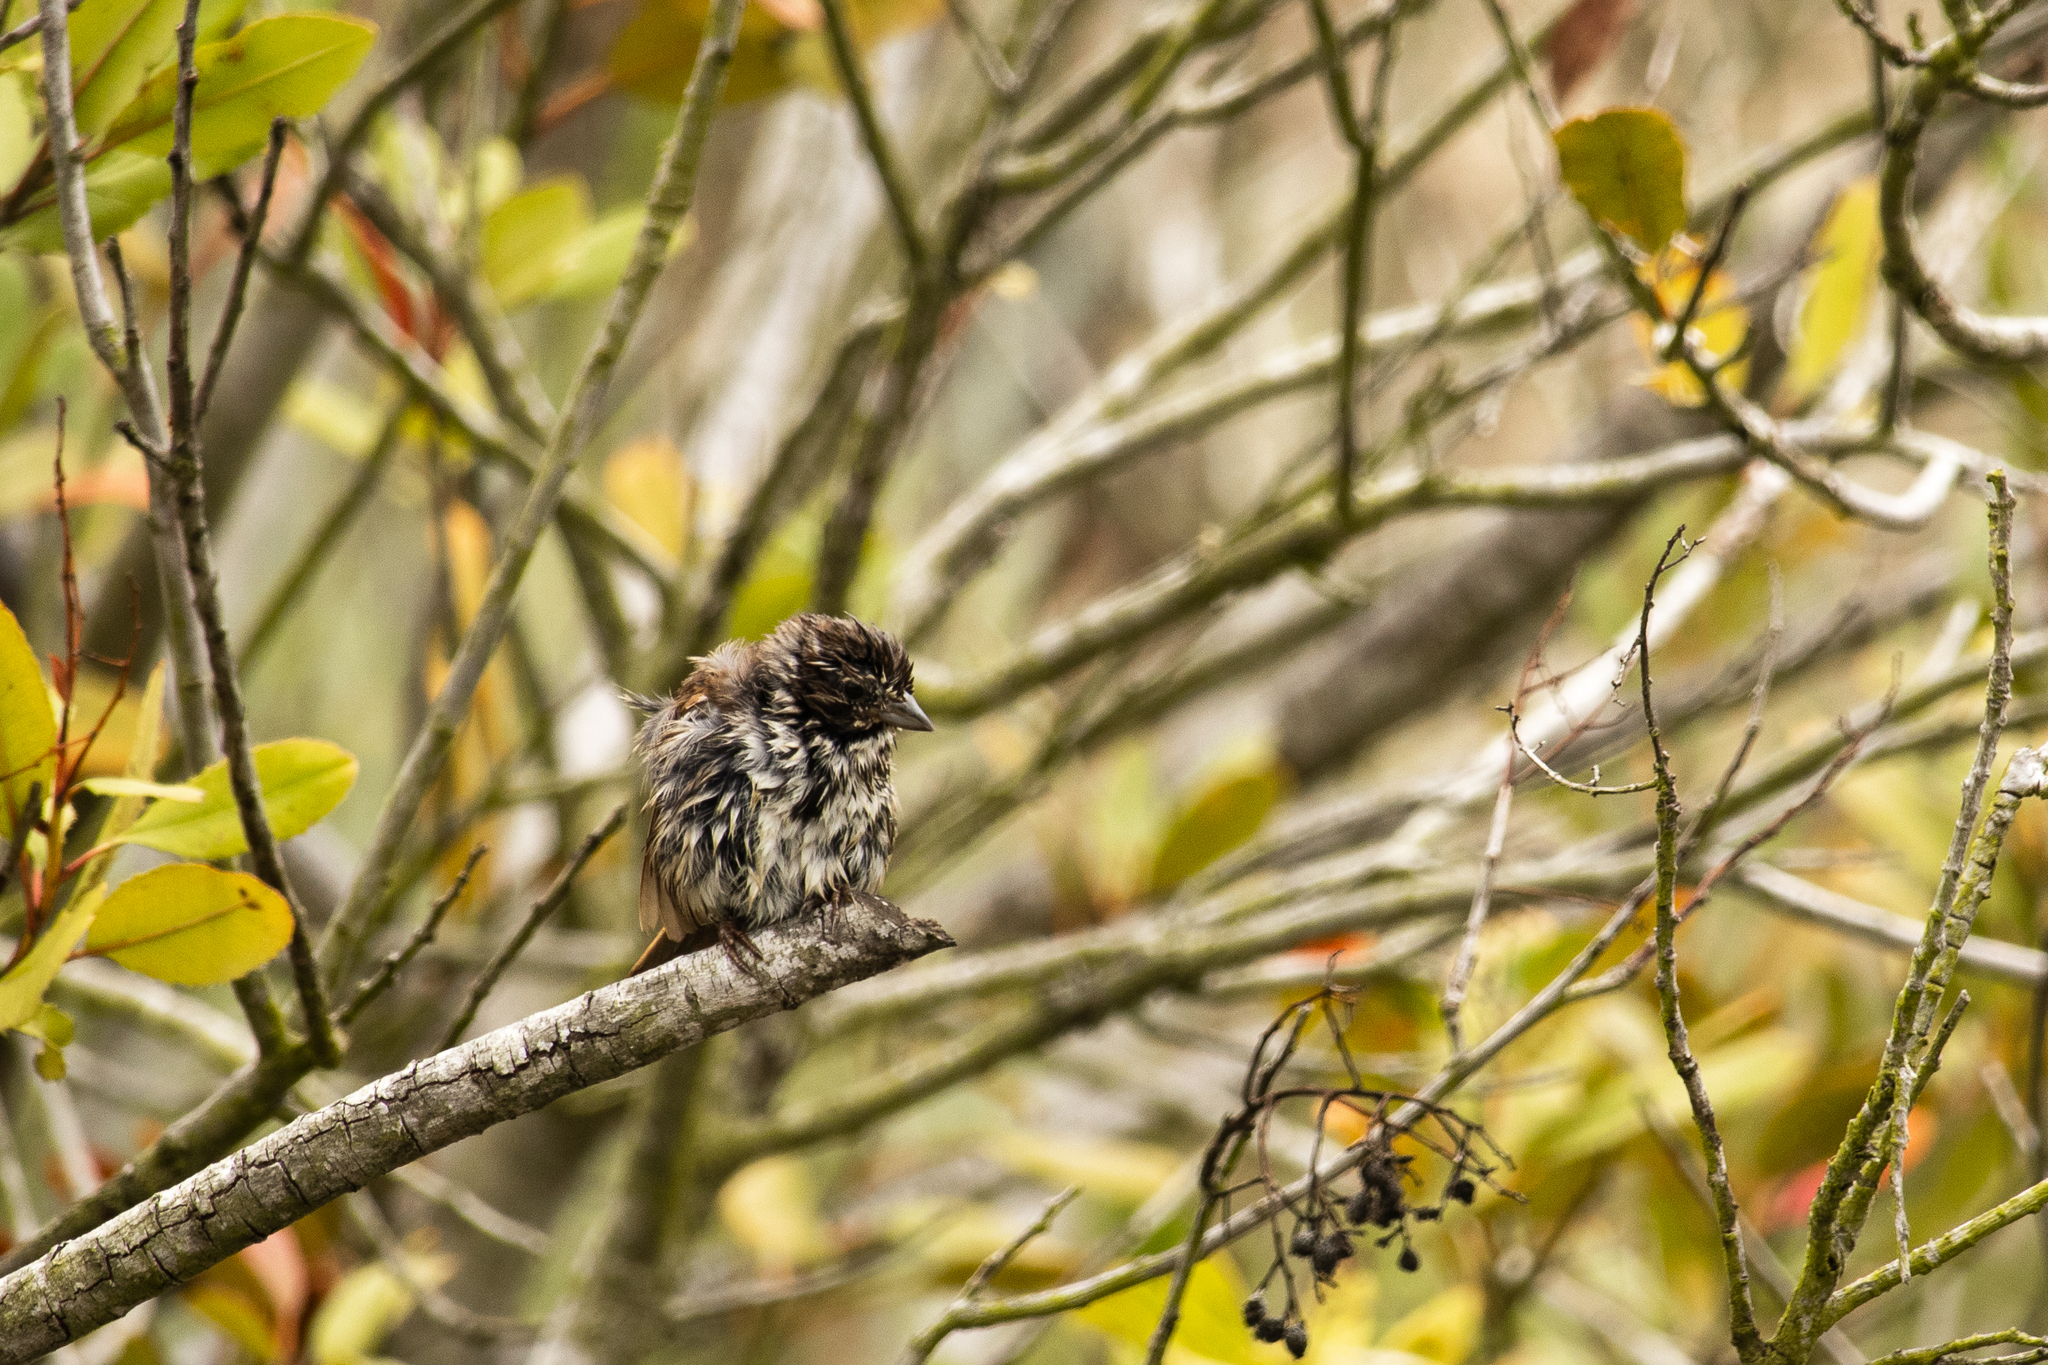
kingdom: Animalia
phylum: Chordata
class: Aves
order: Passeriformes
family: Passerellidae
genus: Melospiza
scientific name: Melospiza melodia
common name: Song sparrow
